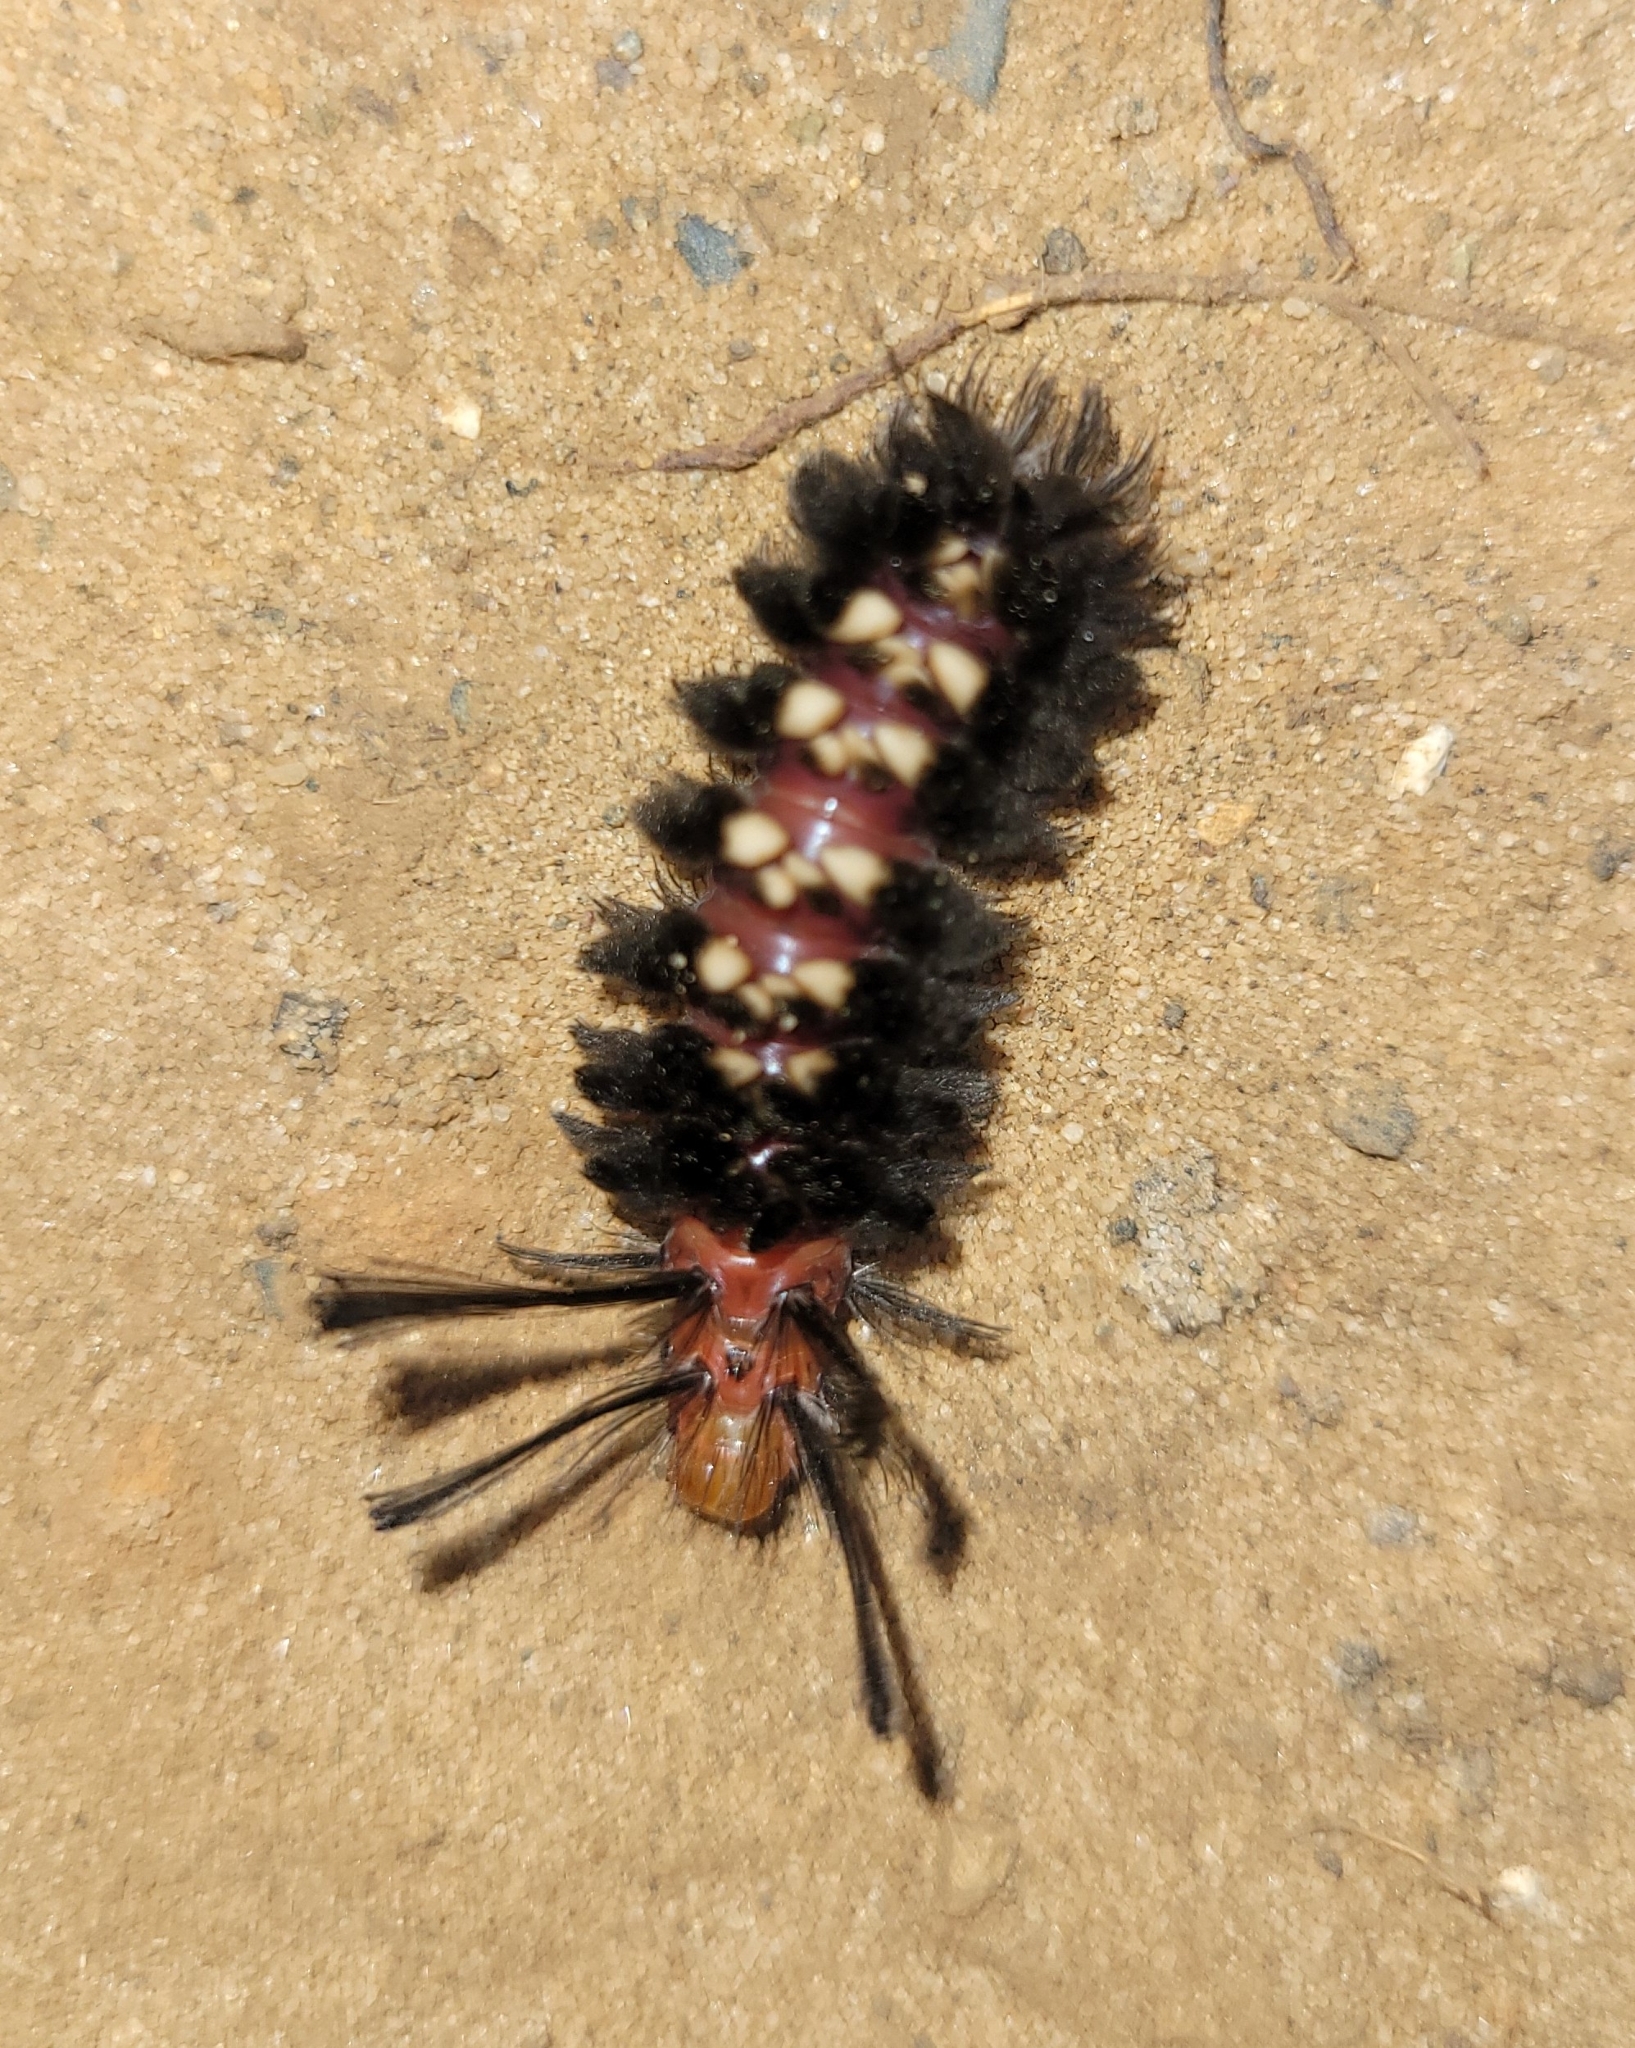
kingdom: Animalia
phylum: Arthropoda
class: Insecta
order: Lepidoptera
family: Erebidae
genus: Euchromia
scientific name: Euchromia amoena
